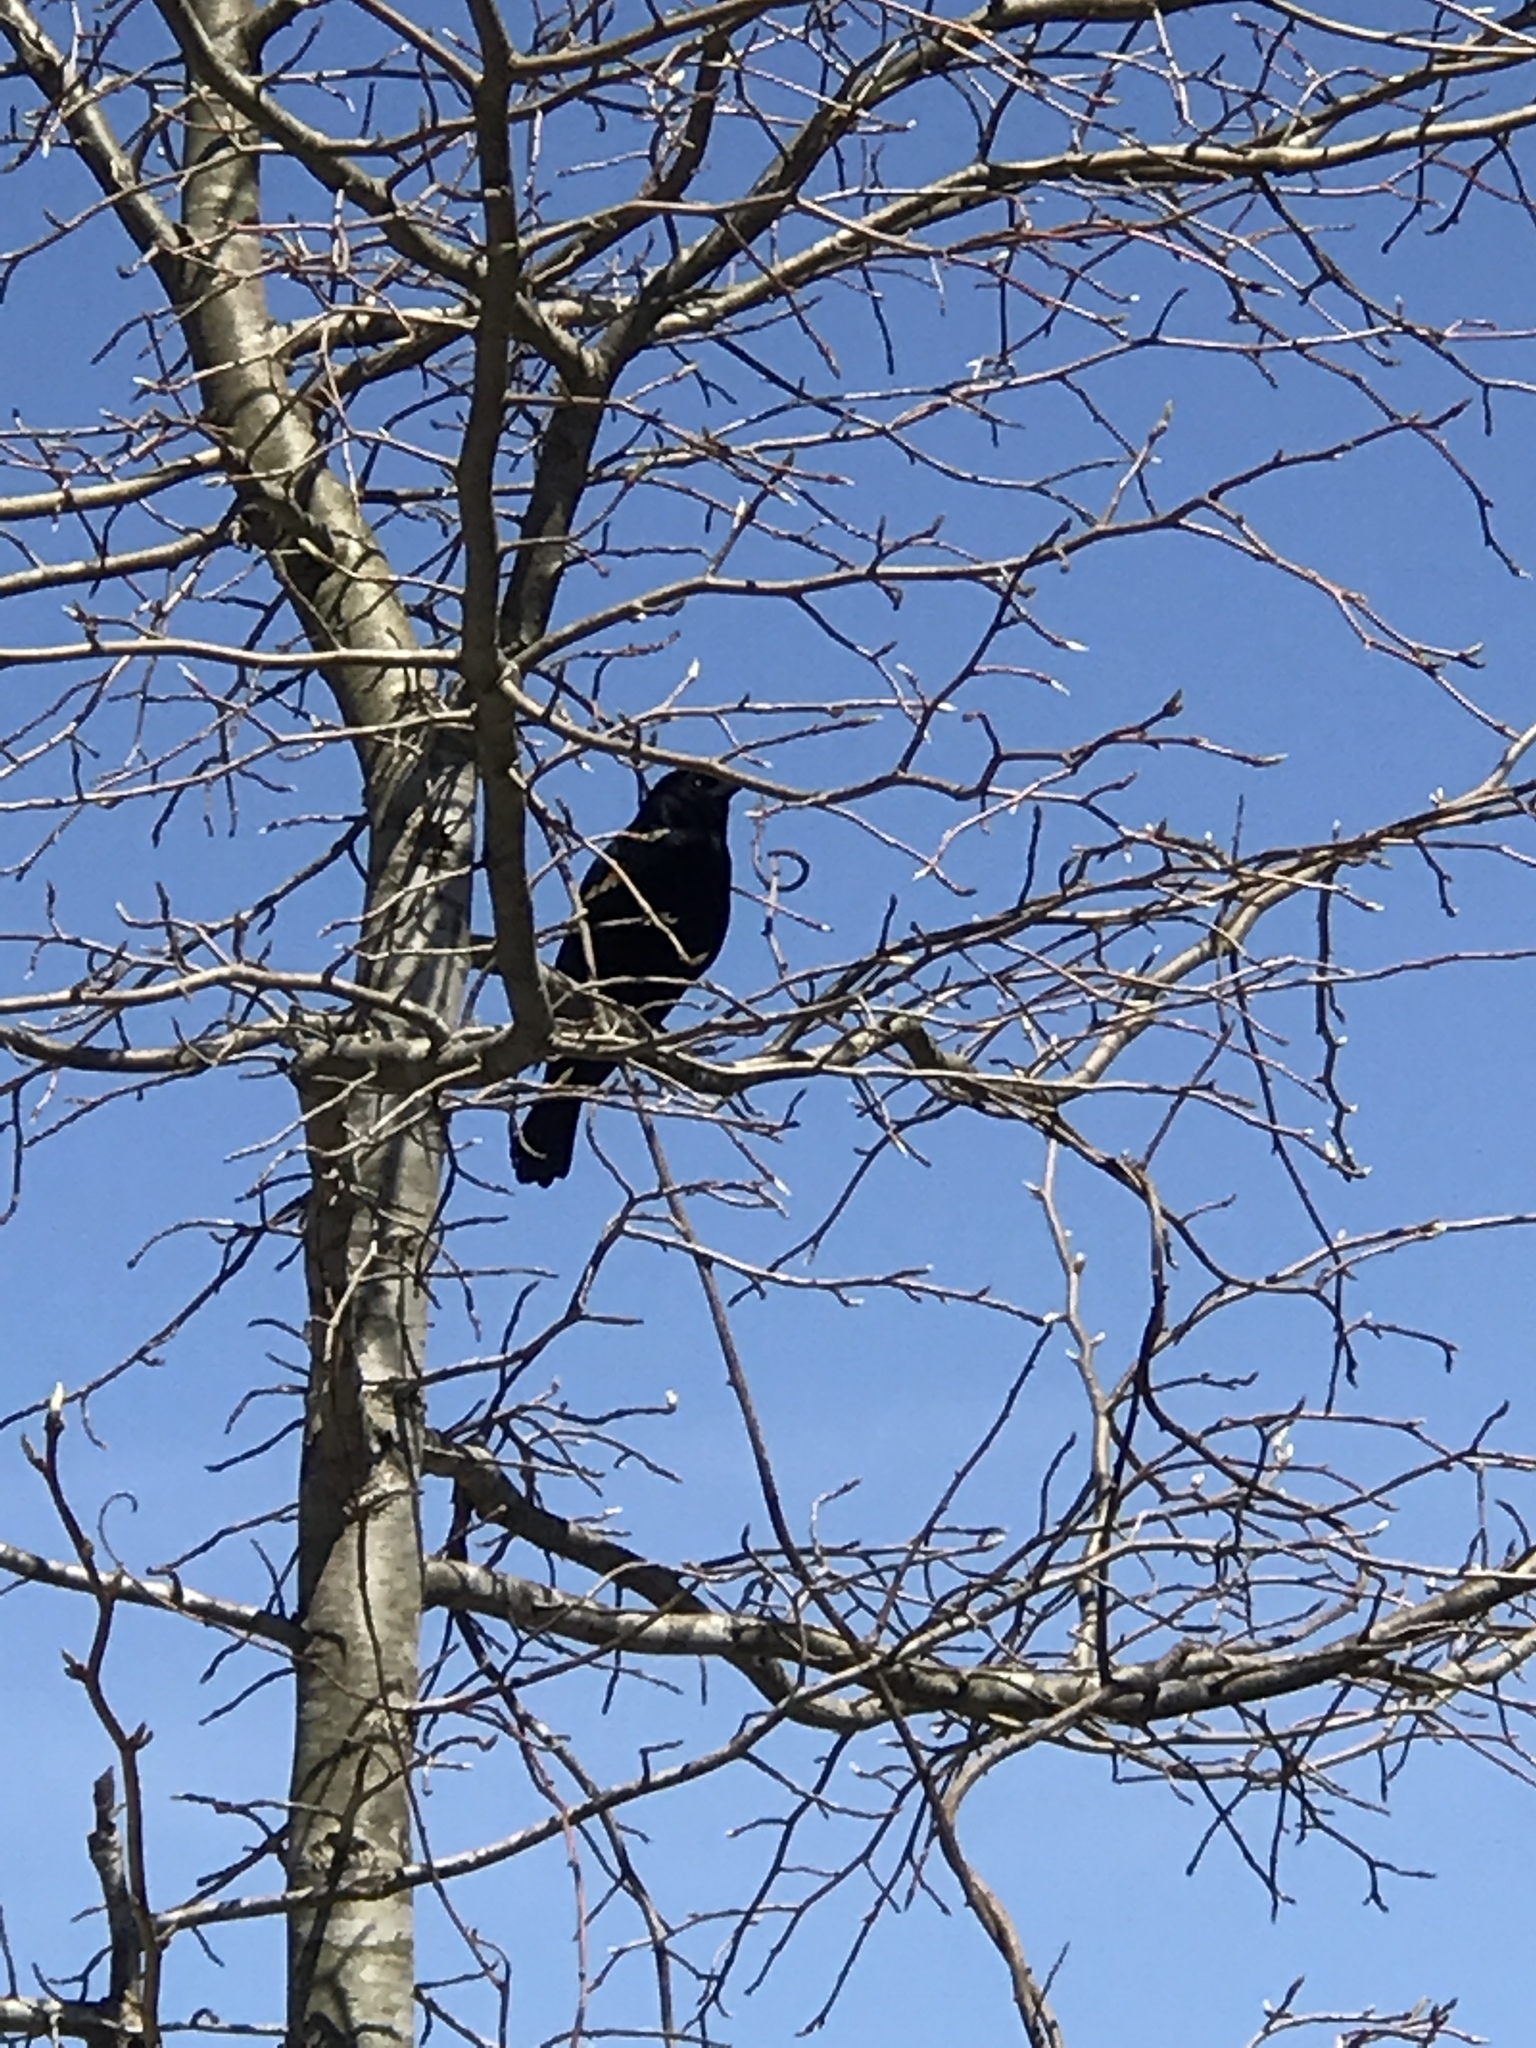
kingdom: Animalia
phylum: Chordata
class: Aves
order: Passeriformes
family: Icteridae
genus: Agelaius
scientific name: Agelaius phoeniceus
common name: Red-winged blackbird
